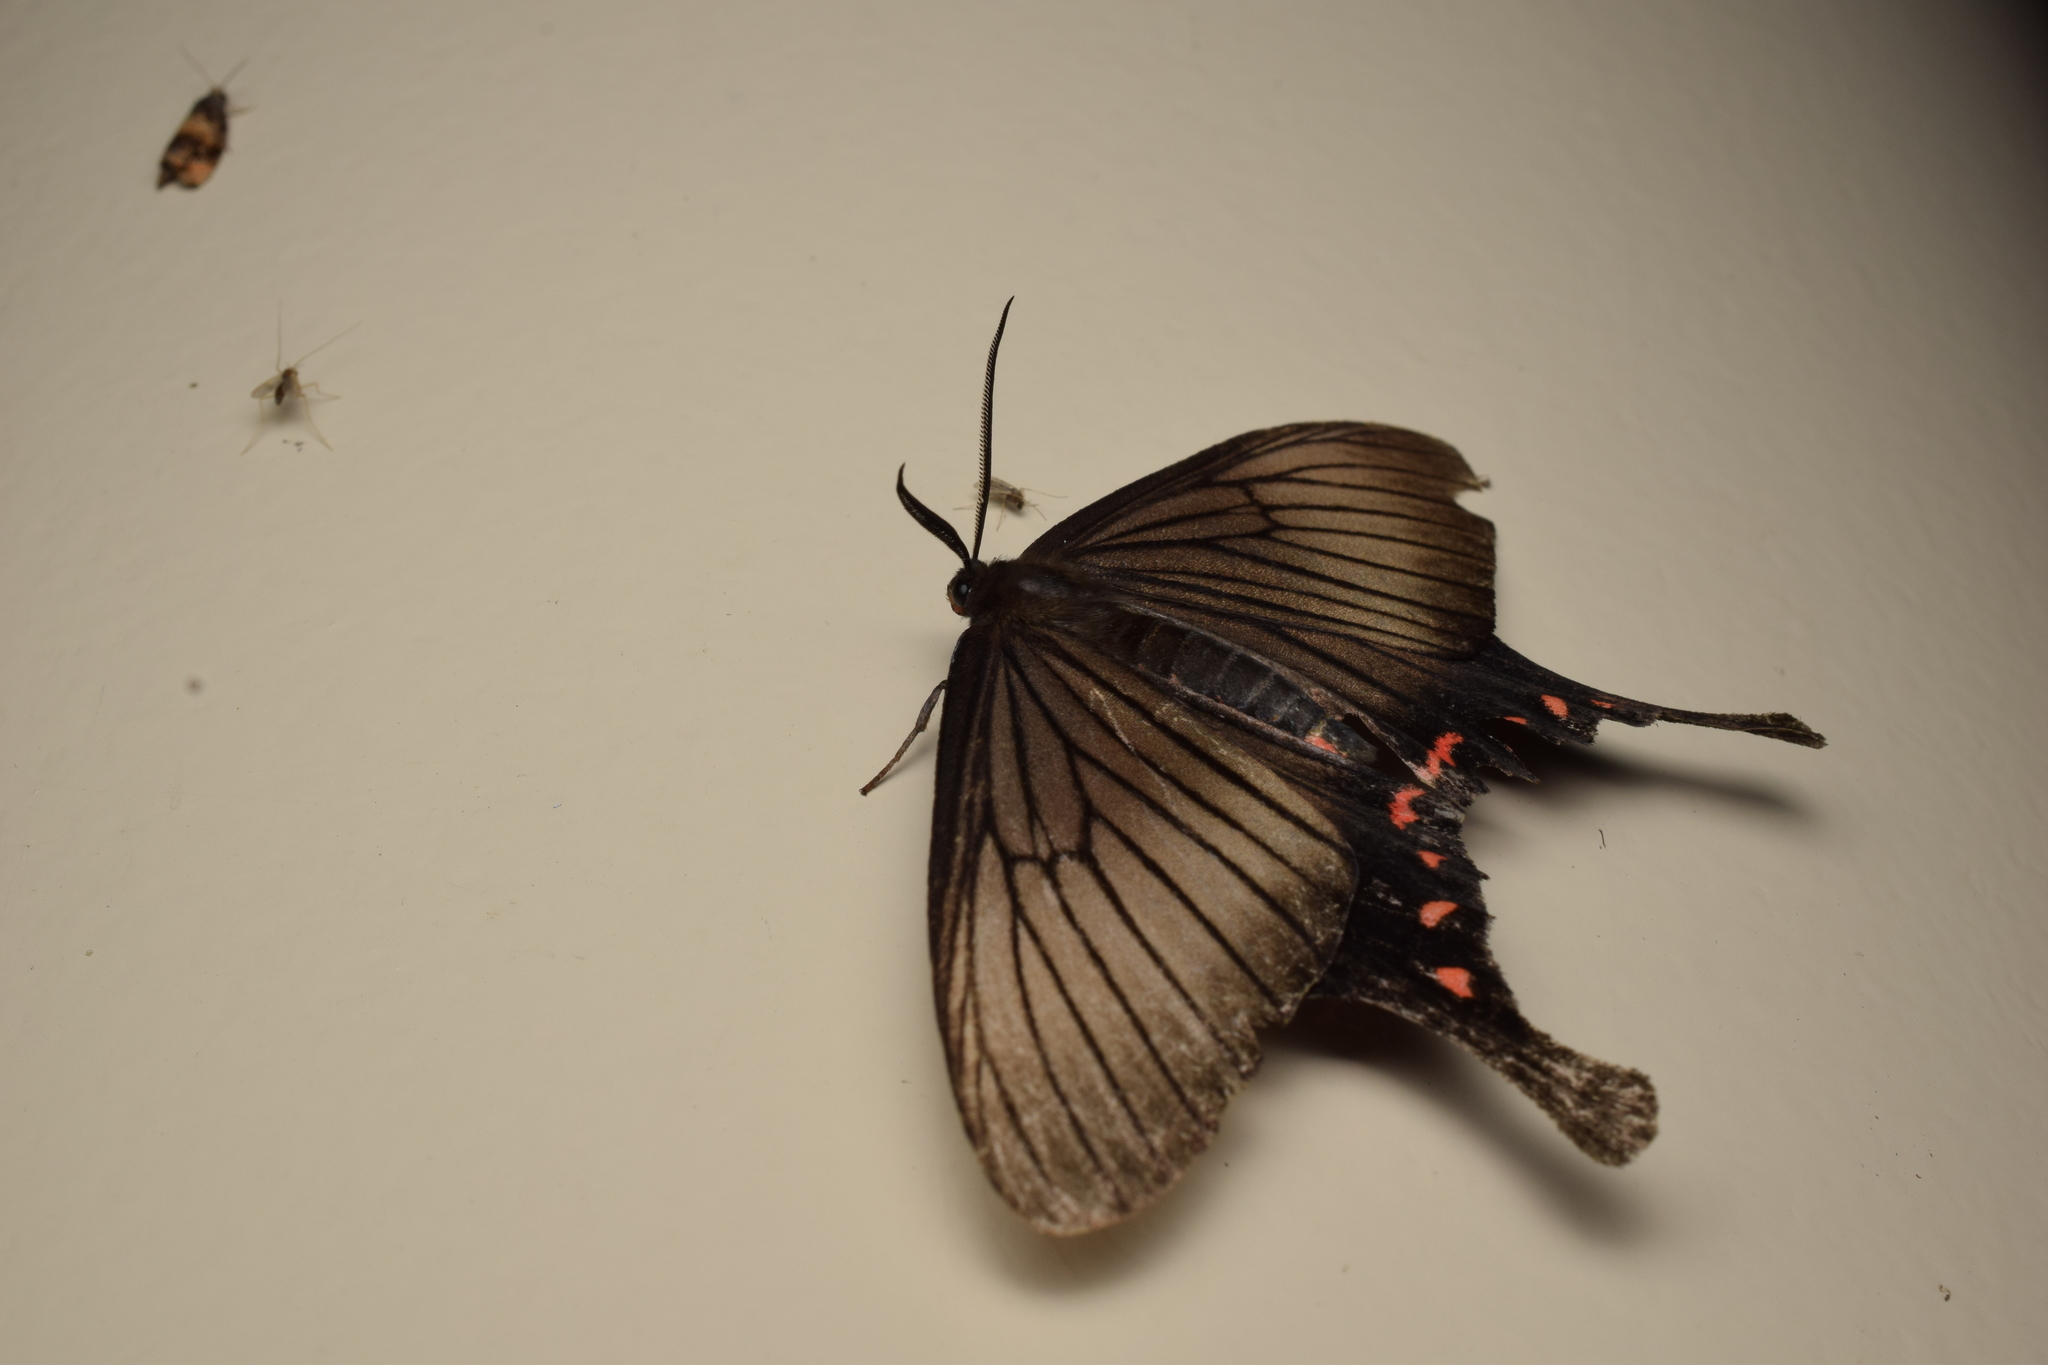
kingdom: Animalia
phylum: Arthropoda
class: Insecta
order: Lepidoptera
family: Epicopeiidae
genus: Epicopeia
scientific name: Epicopeia hainesii
